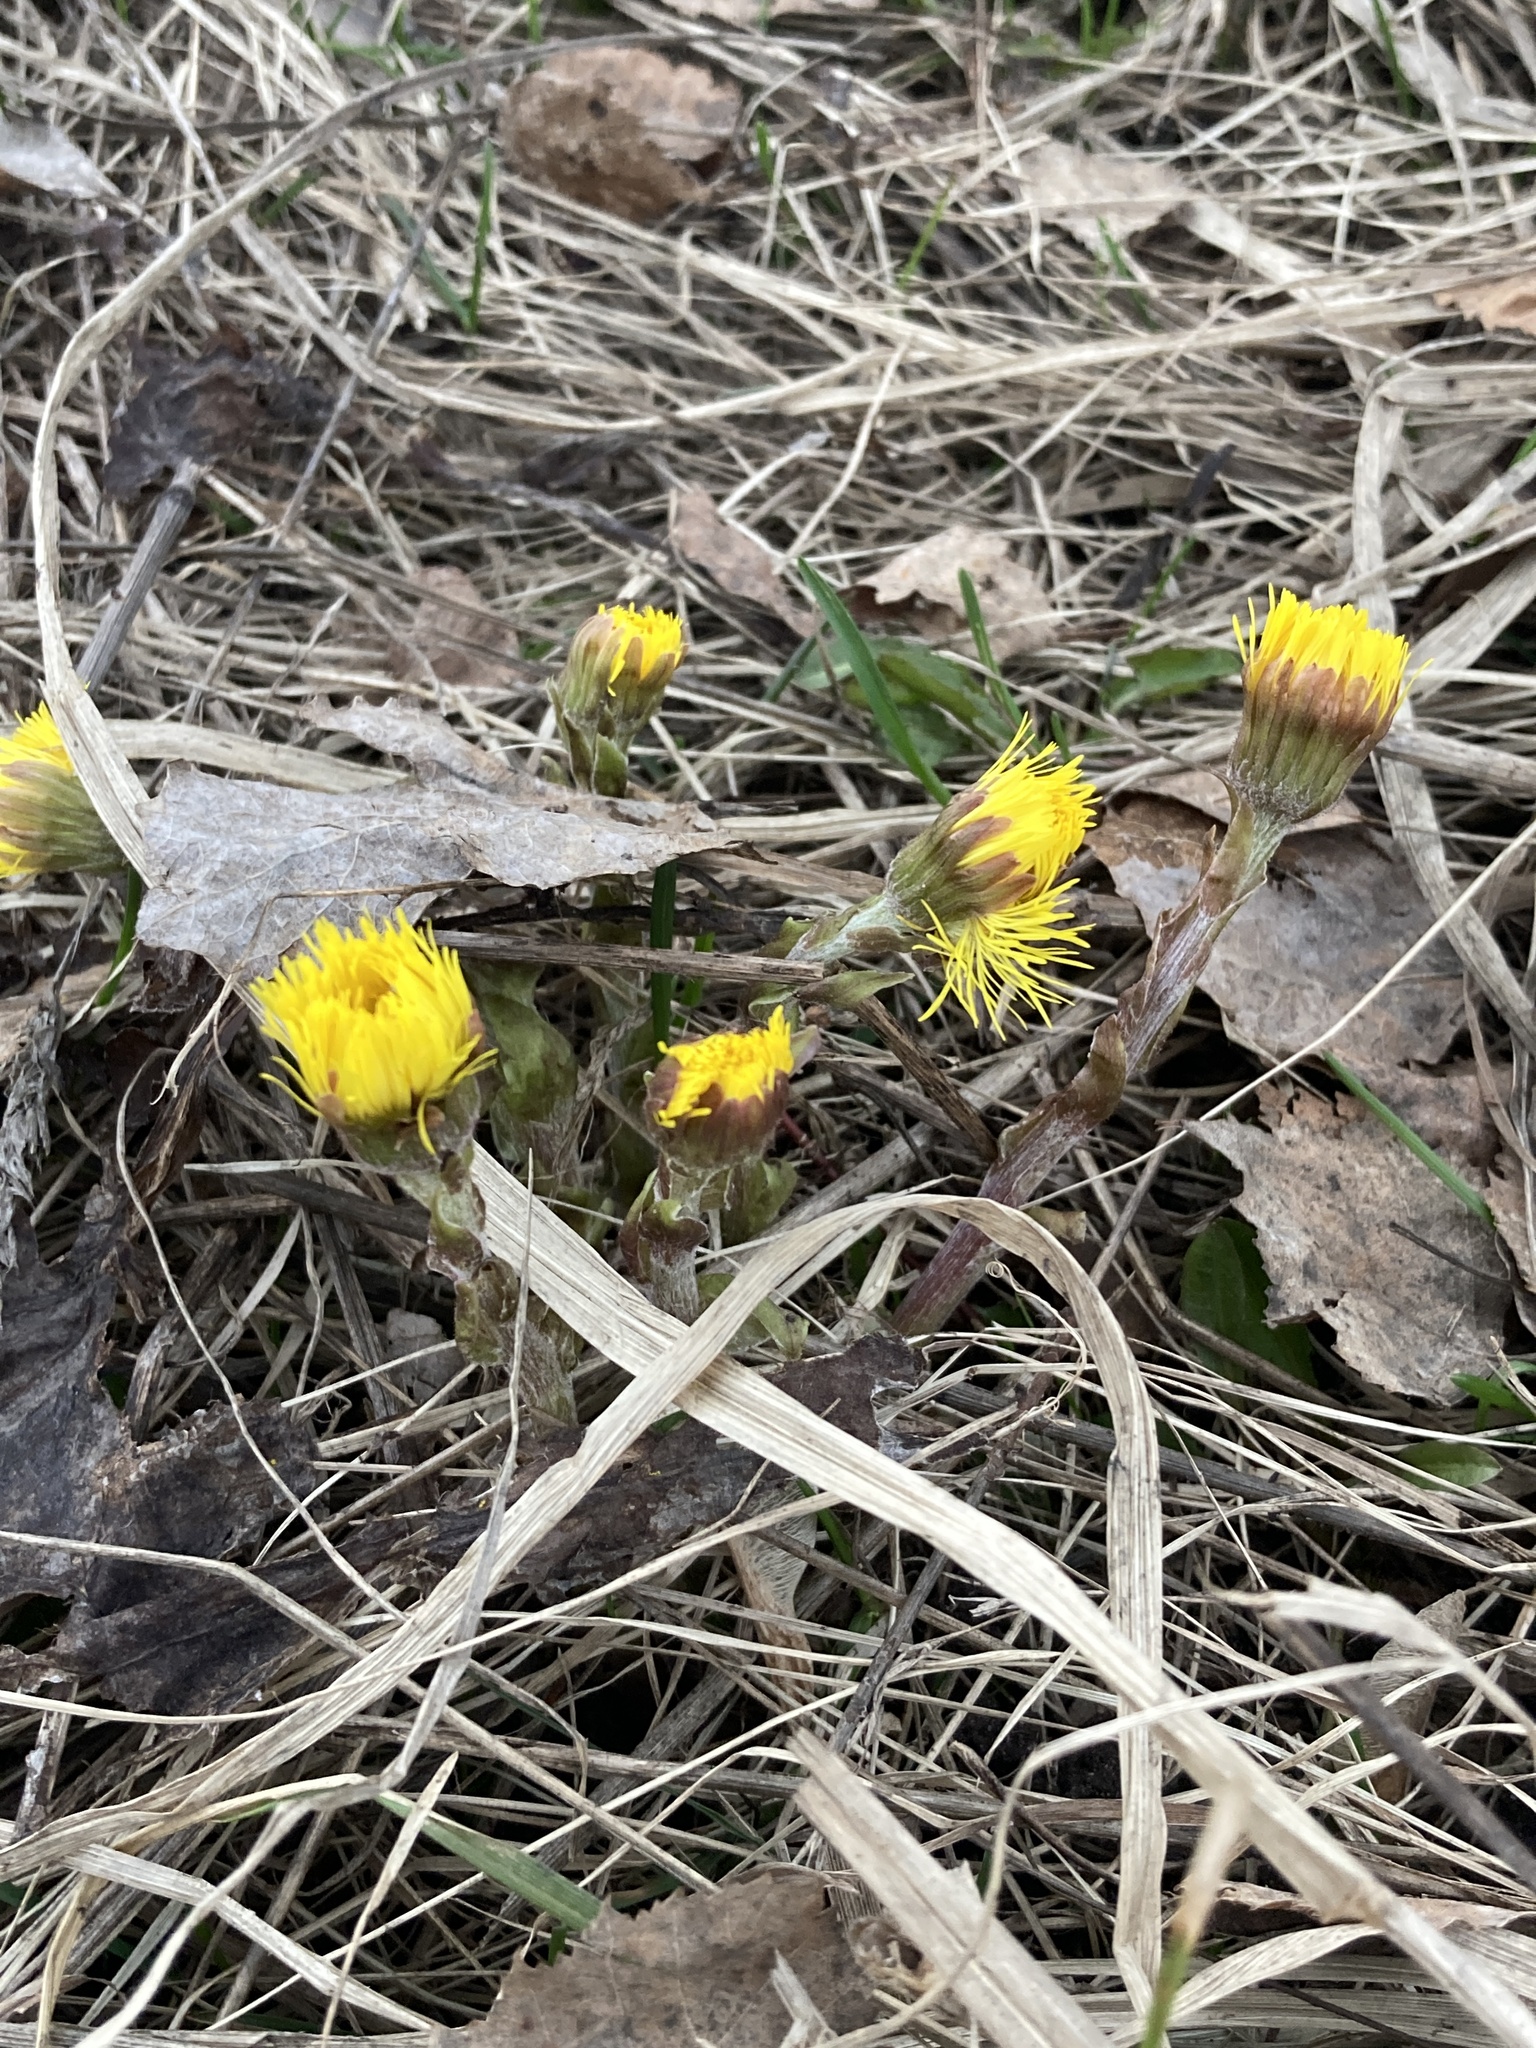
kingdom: Plantae
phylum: Tracheophyta
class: Magnoliopsida
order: Asterales
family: Asteraceae
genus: Tussilago
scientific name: Tussilago farfara
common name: Coltsfoot
